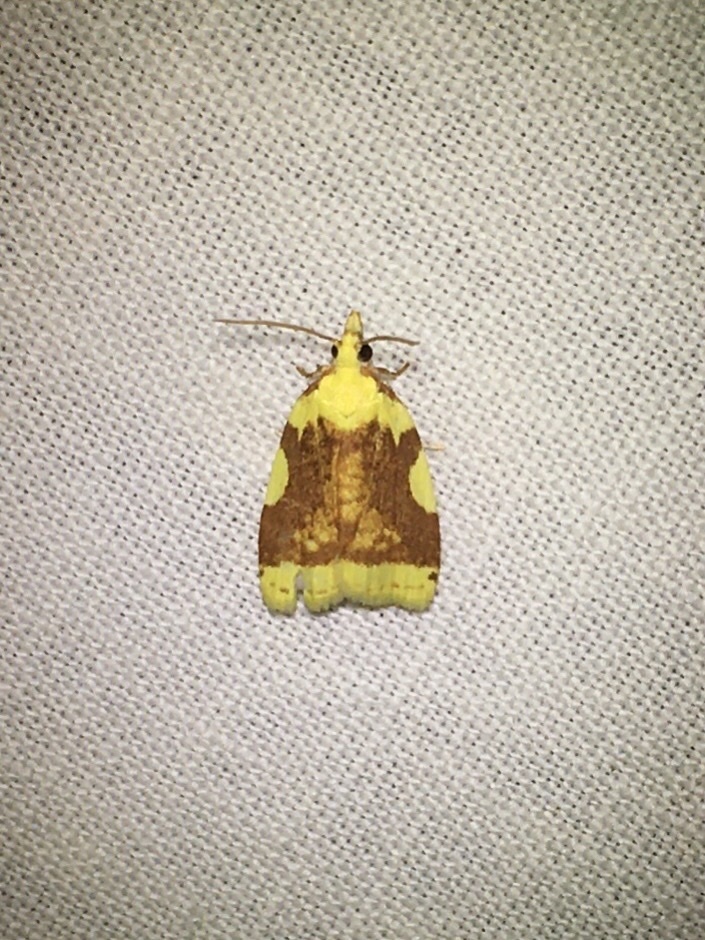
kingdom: Animalia
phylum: Arthropoda
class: Insecta
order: Lepidoptera
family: Tortricidae
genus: Cenopis
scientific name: Cenopis niveana
